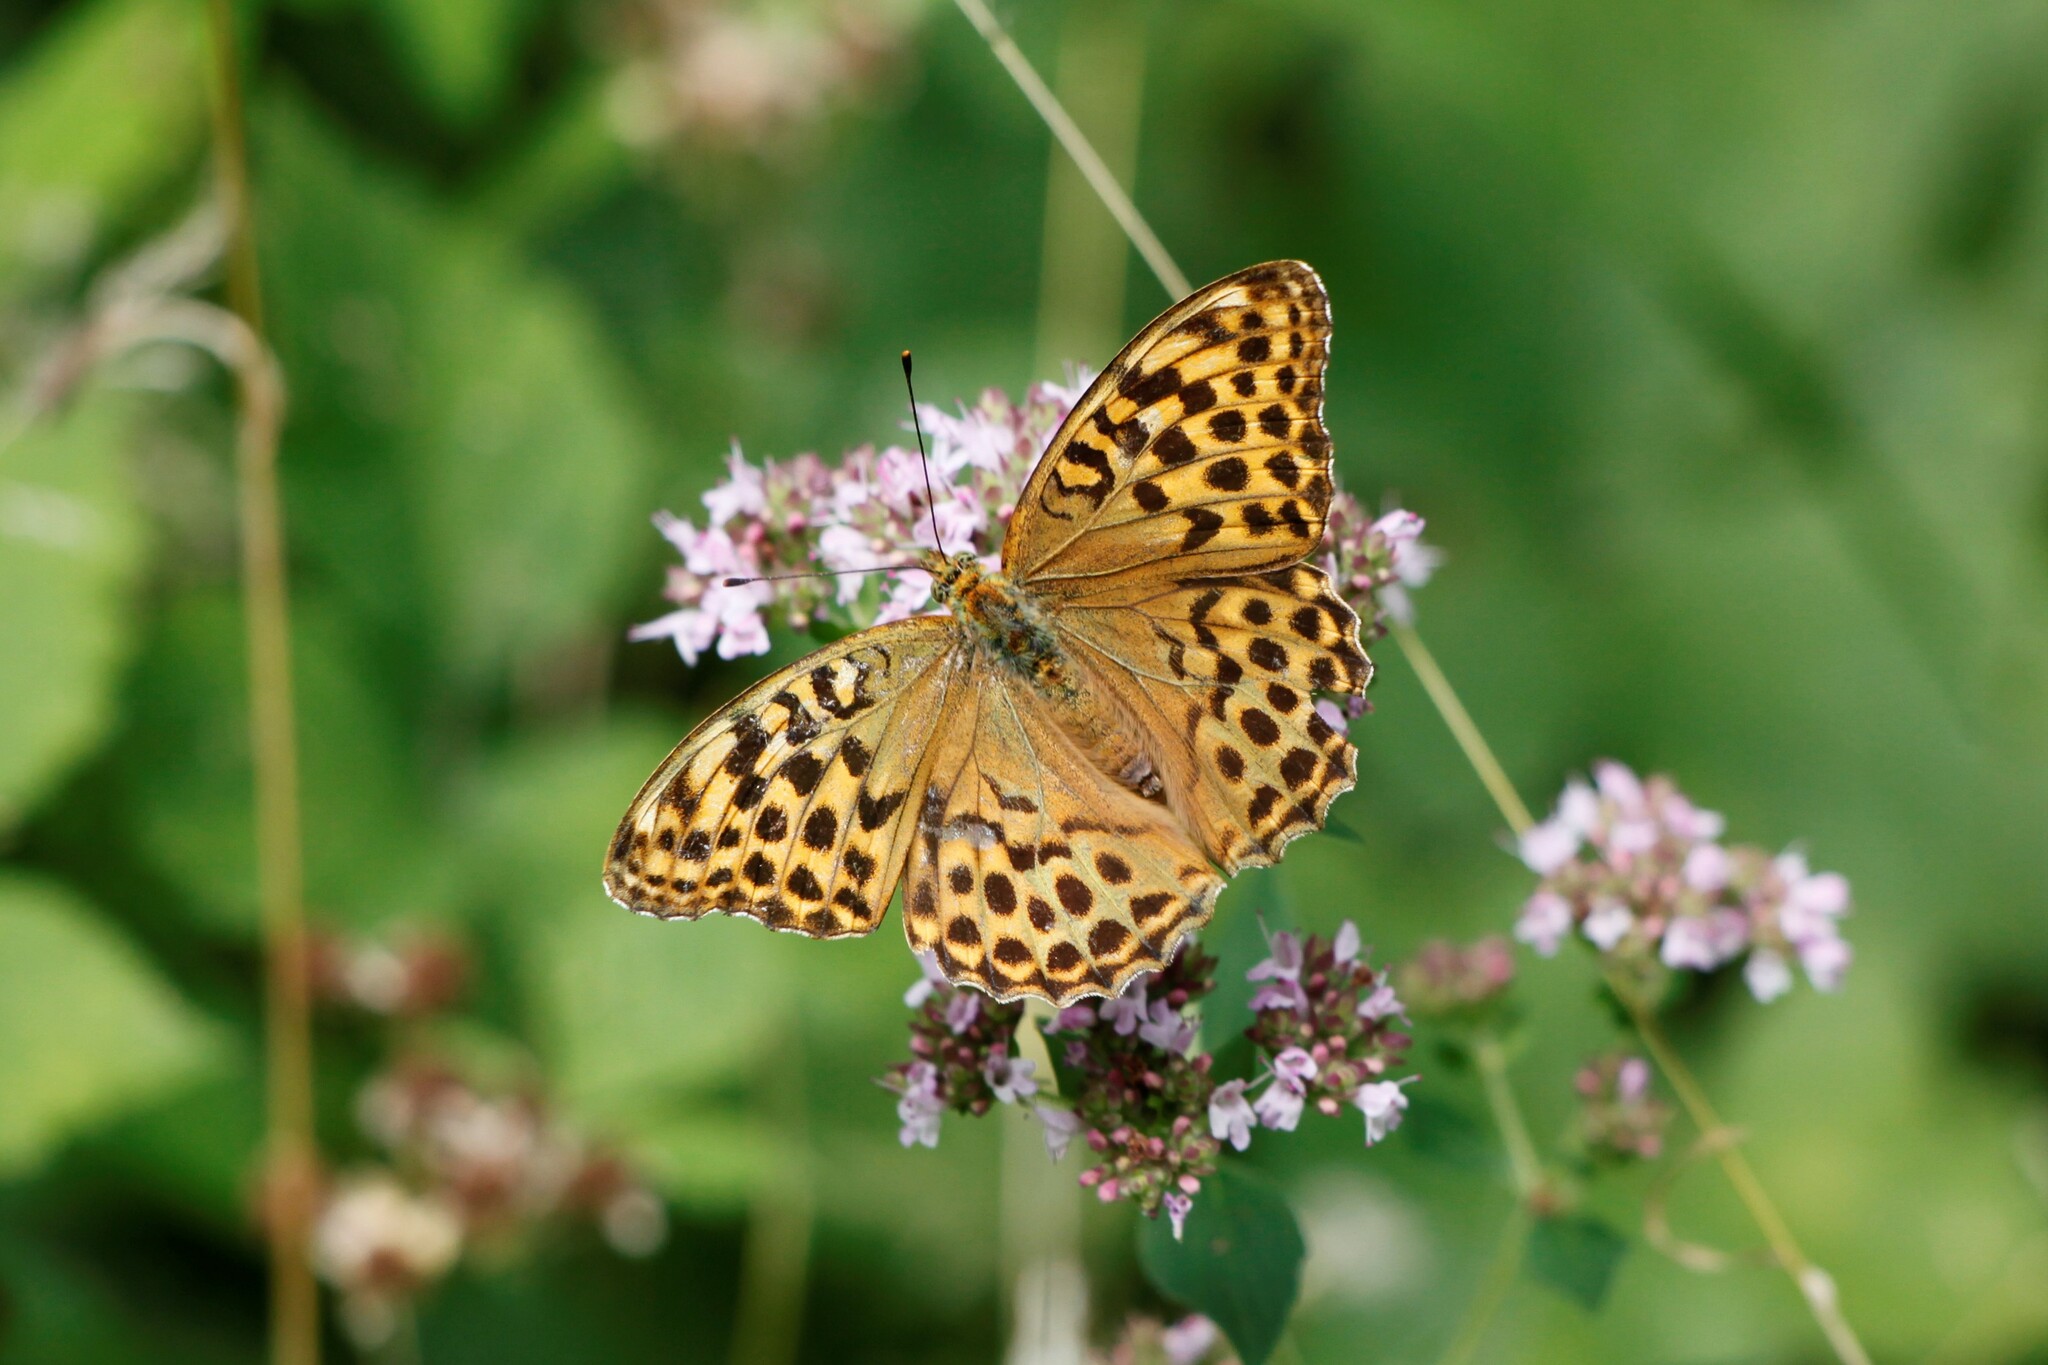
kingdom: Animalia
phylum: Arthropoda
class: Insecta
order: Lepidoptera
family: Nymphalidae
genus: Argynnis
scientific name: Argynnis paphia
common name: Silver-washed fritillary
